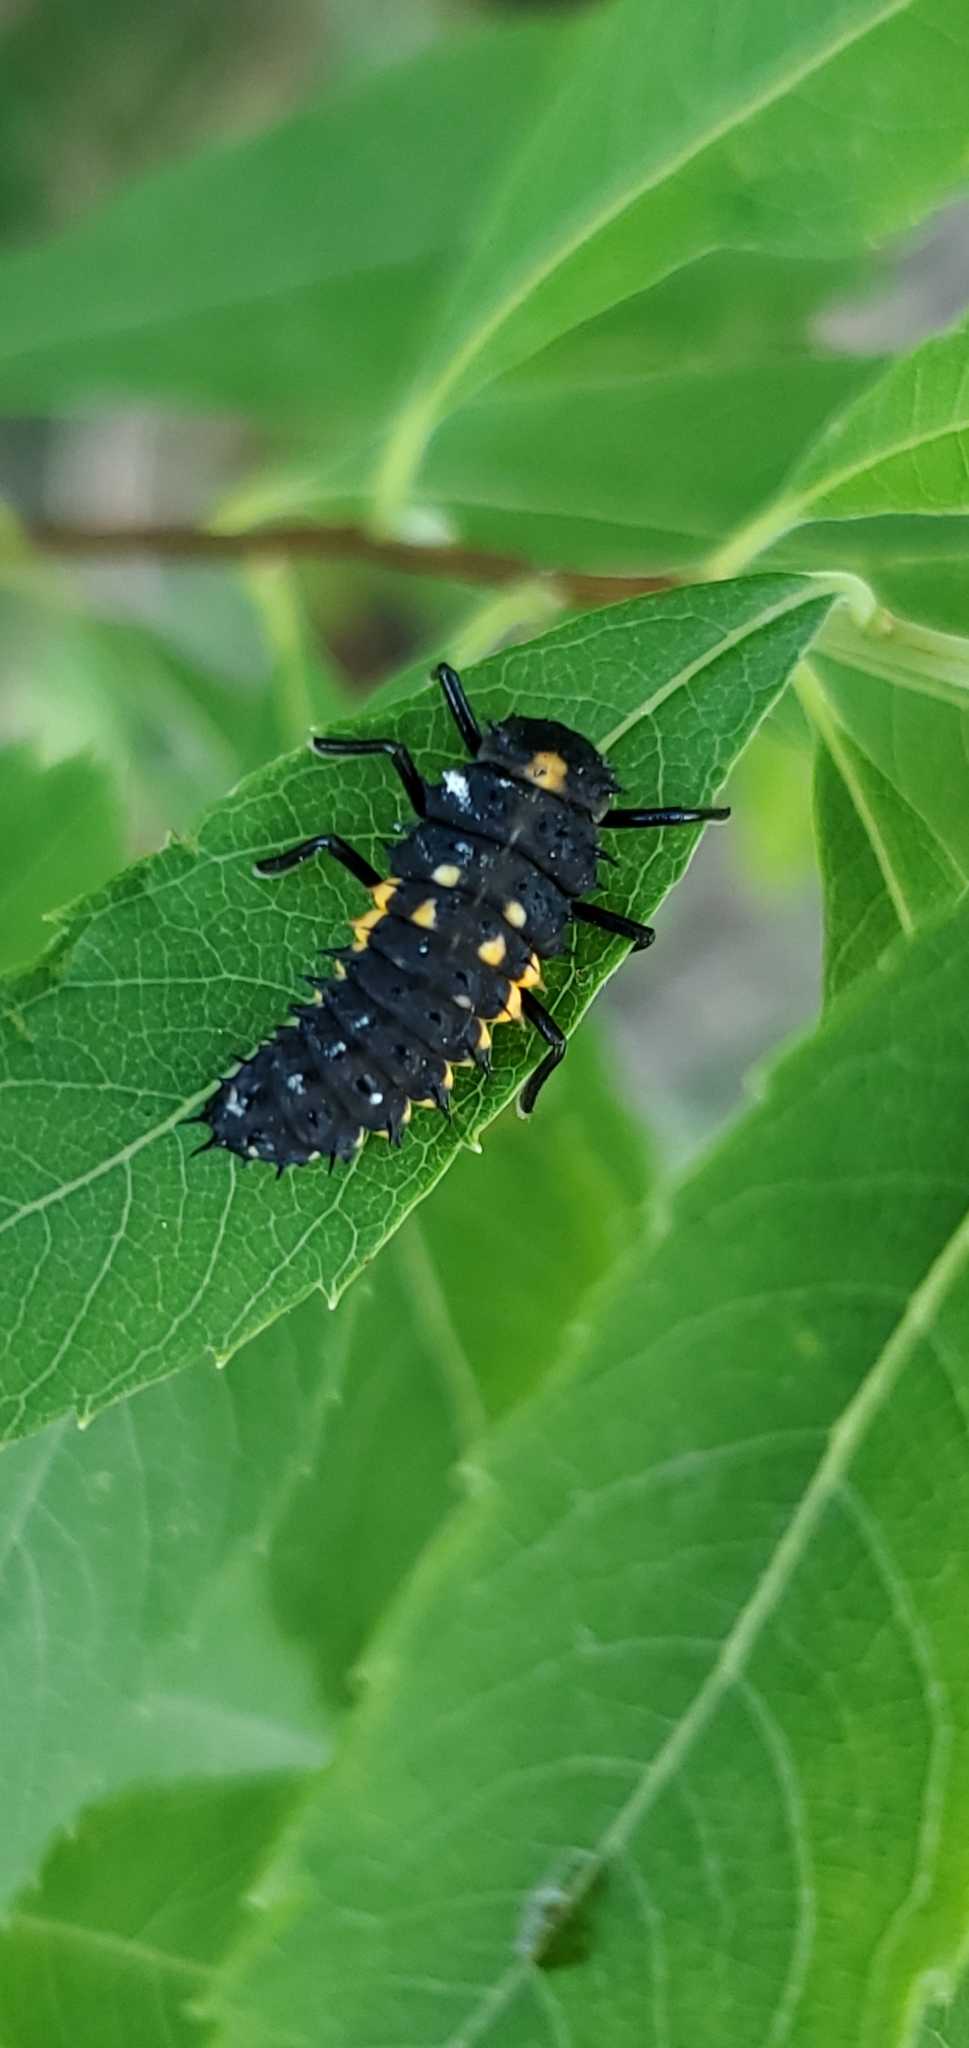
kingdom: Animalia
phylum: Arthropoda
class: Insecta
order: Coleoptera
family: Coccinellidae
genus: Harmonia
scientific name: Harmonia axyridis
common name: Harlequin ladybird
